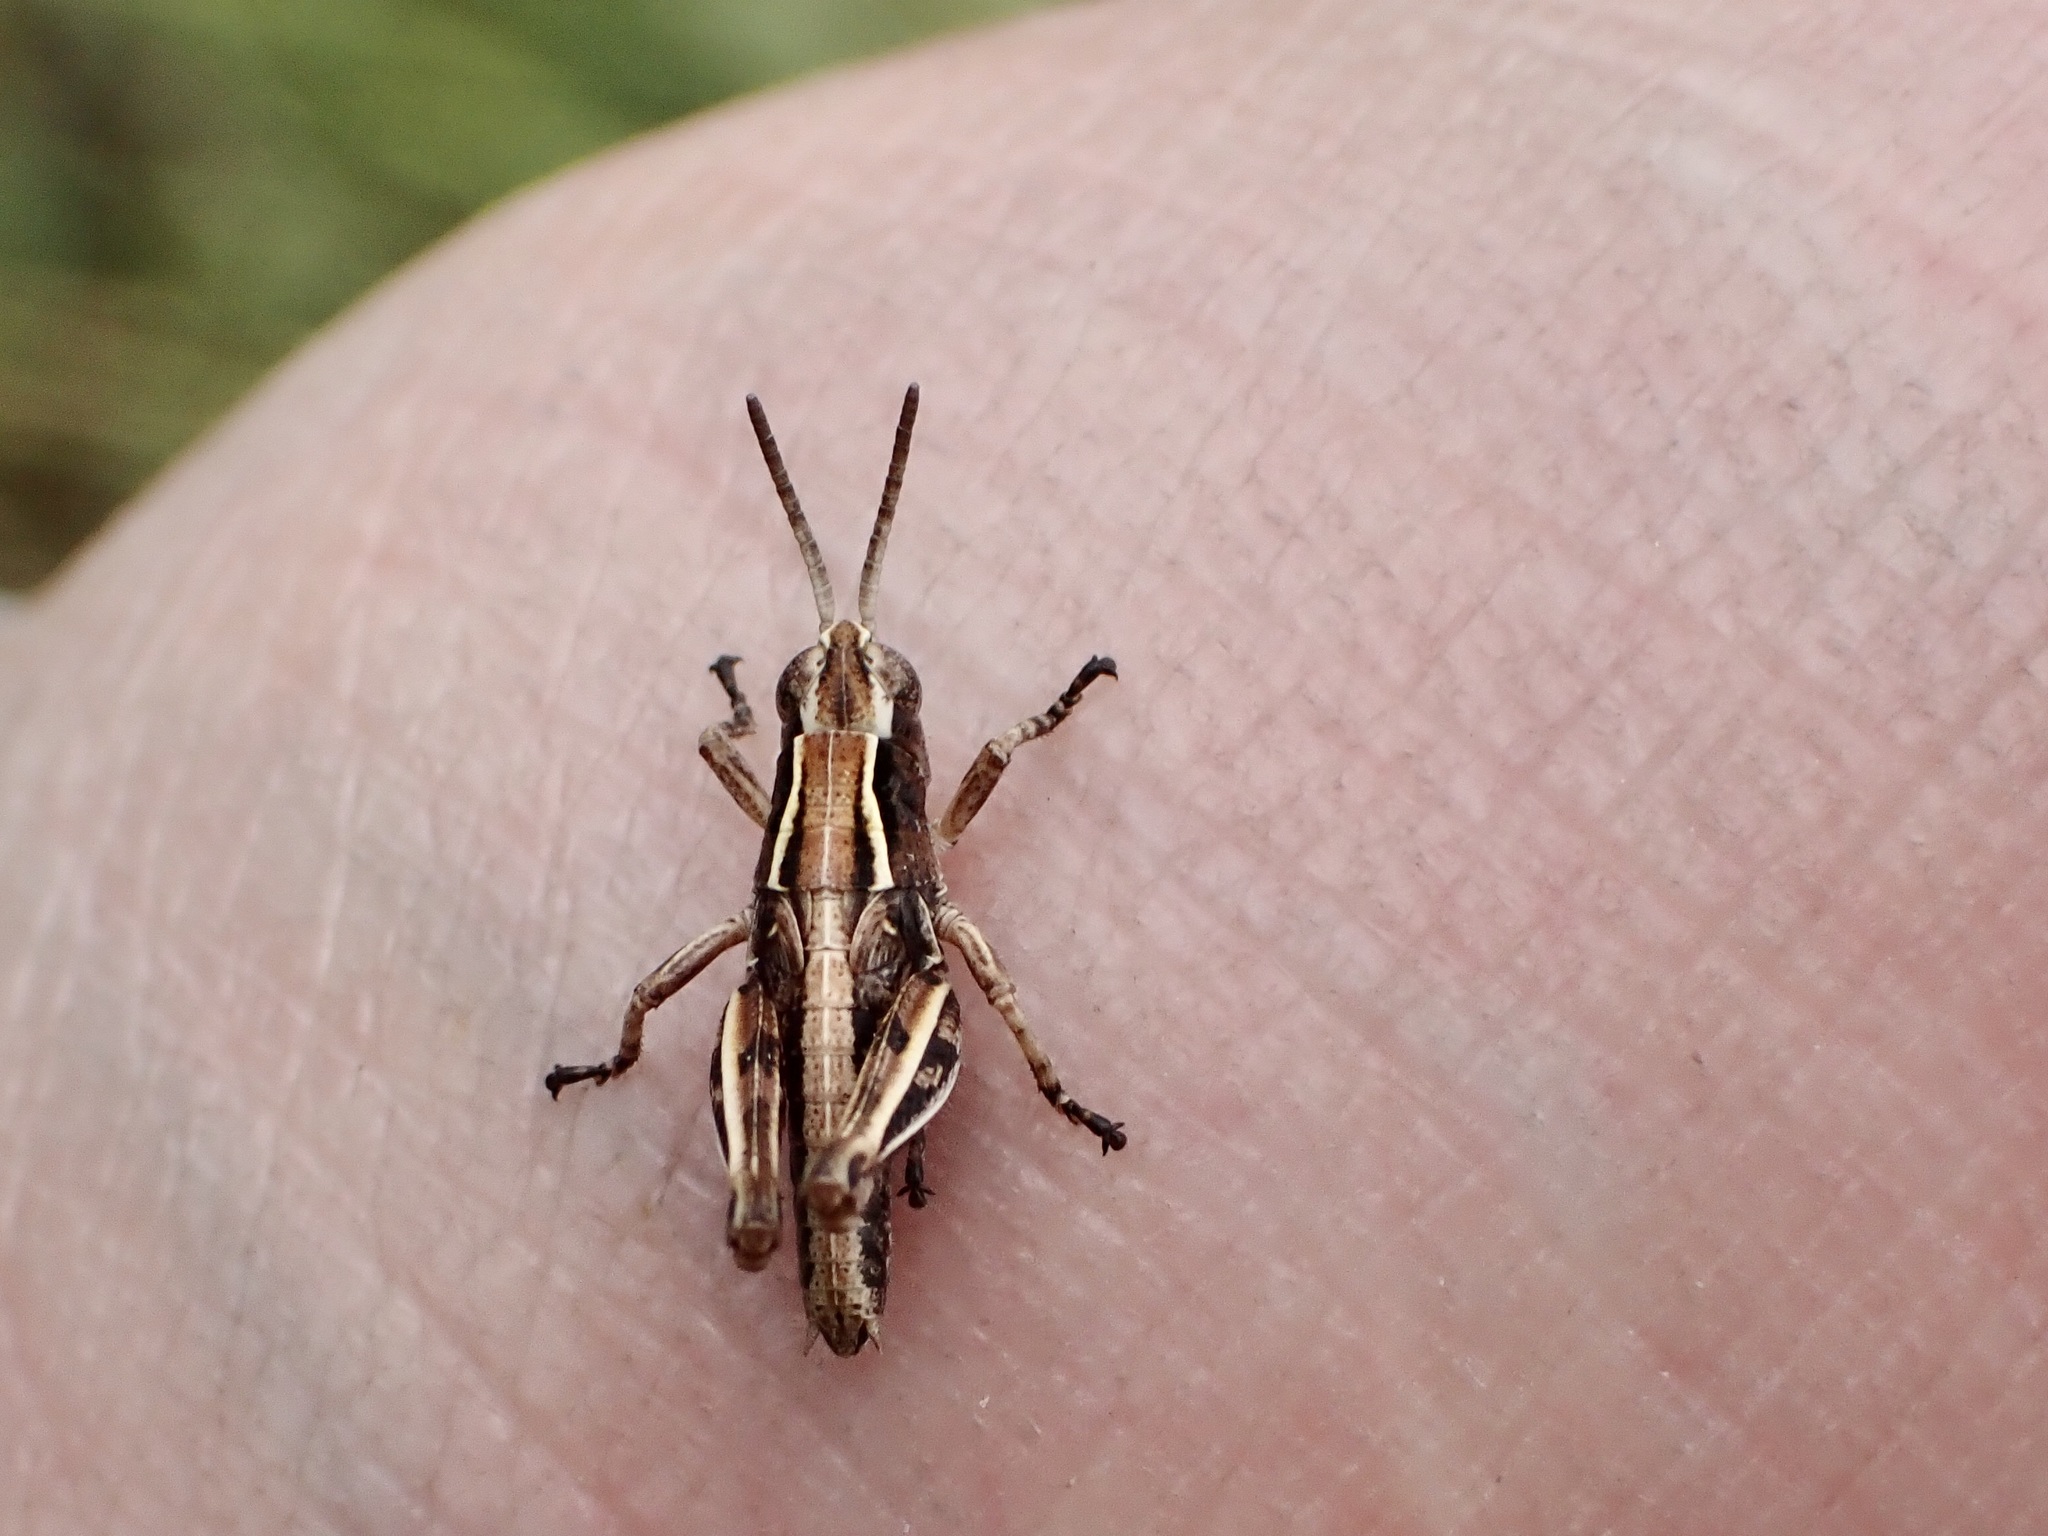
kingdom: Animalia
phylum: Arthropoda
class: Insecta
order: Orthoptera
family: Acrididae
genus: Phaulacridium
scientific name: Phaulacridium marginale
